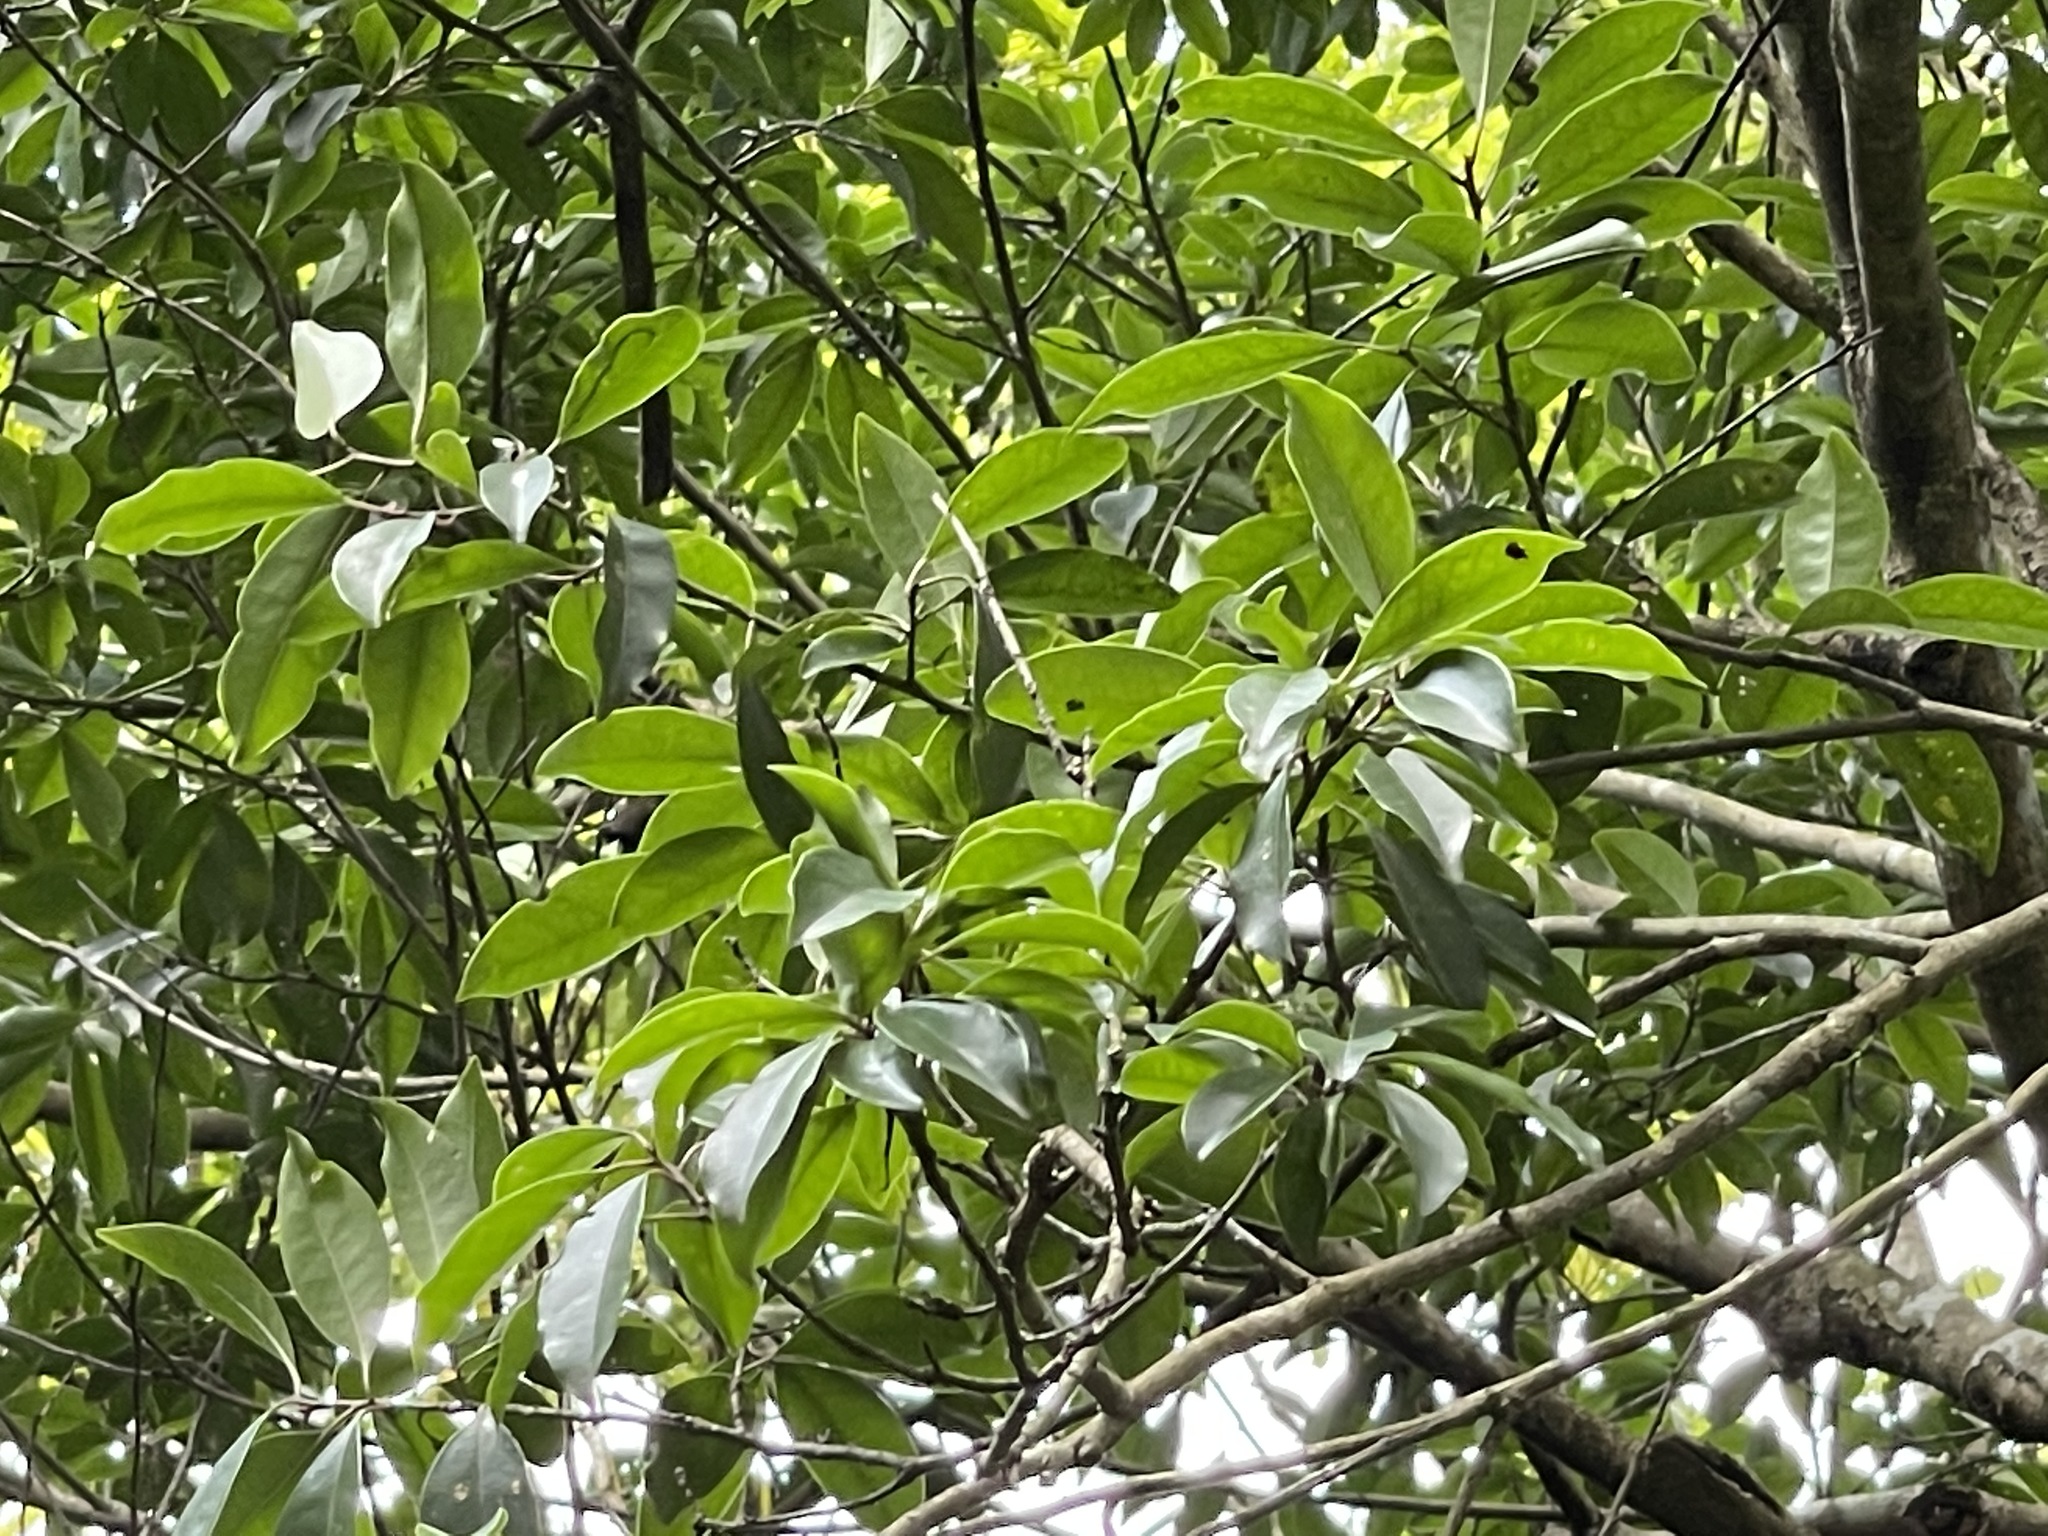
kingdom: Plantae
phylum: Tracheophyta
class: Magnoliopsida
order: Aquifoliales
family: Aquifoliaceae
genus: Ilex
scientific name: Ilex rotunda
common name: Kurogane holly
